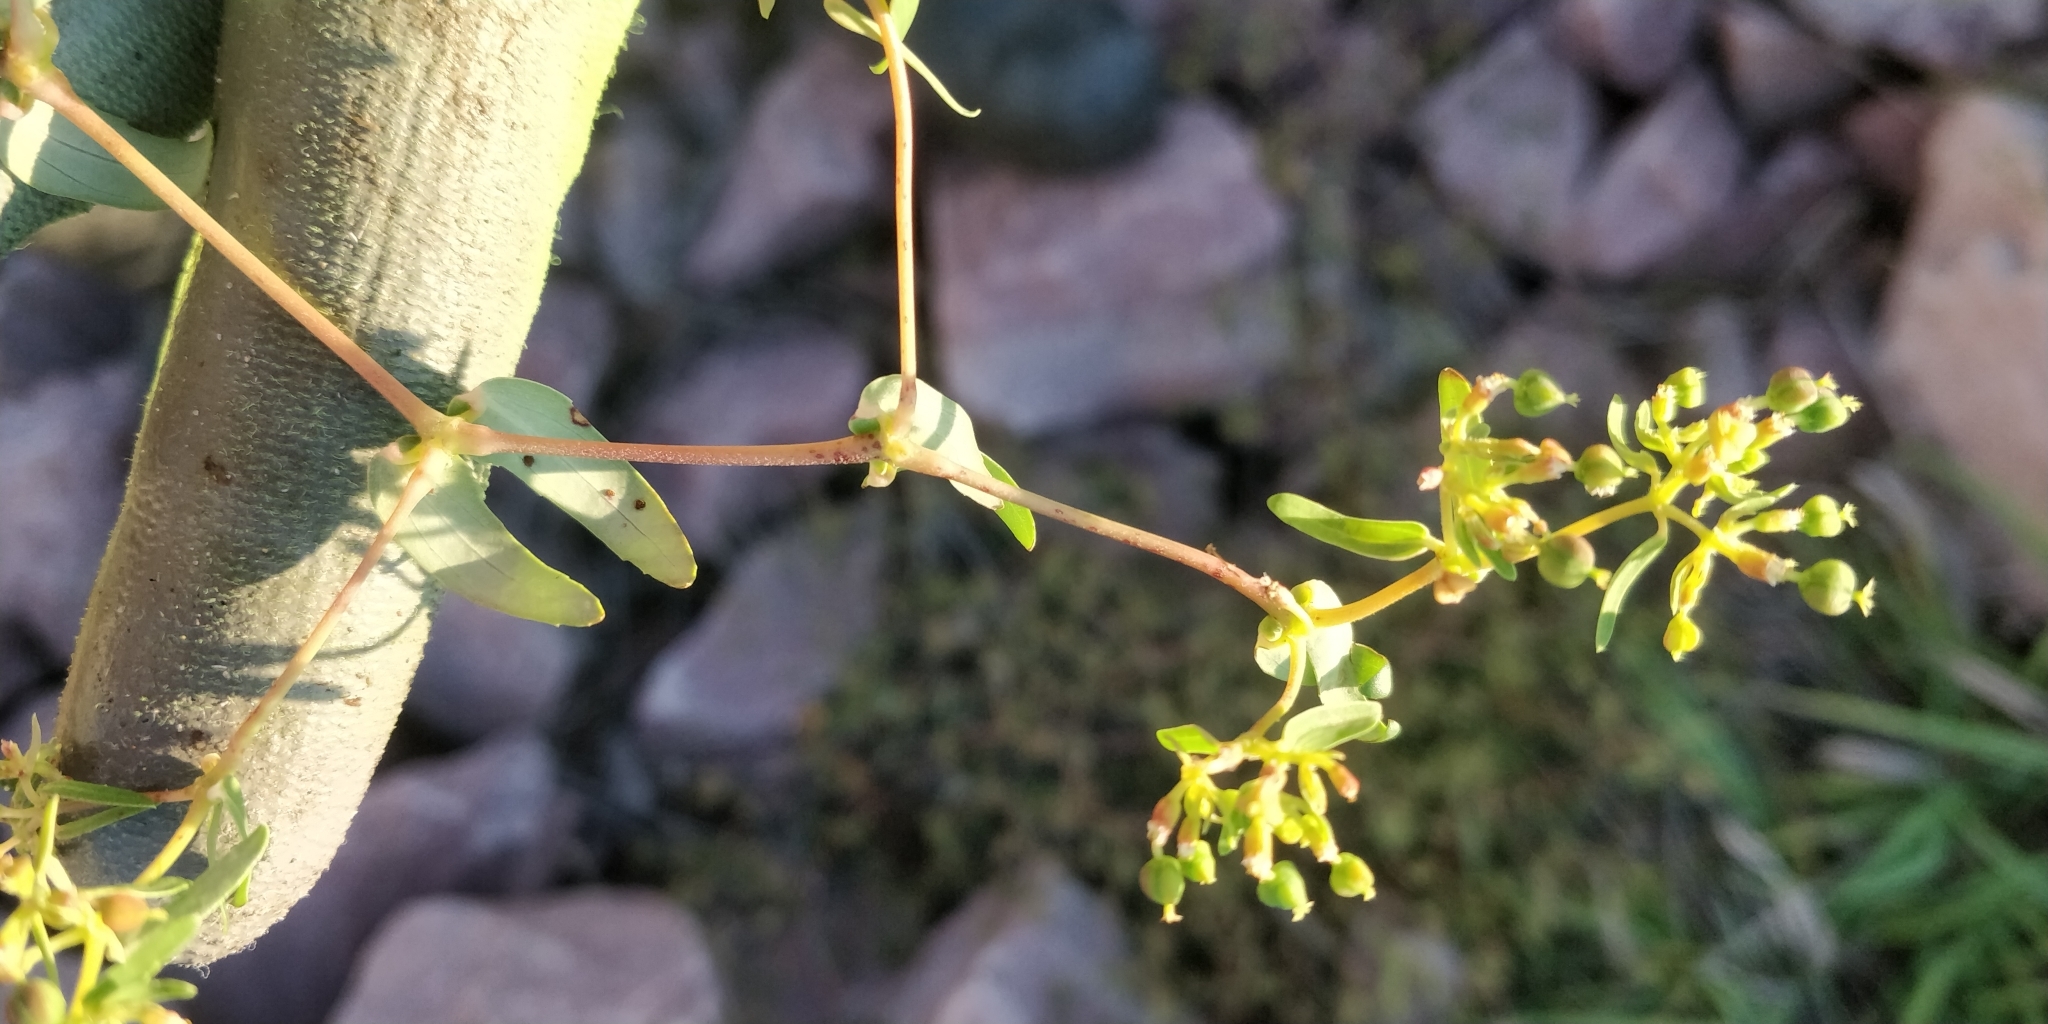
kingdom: Plantae
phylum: Tracheophyta
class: Magnoliopsida
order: Malpighiales
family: Euphorbiaceae
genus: Euphorbia
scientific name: Euphorbia nutans
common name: Eyebane
